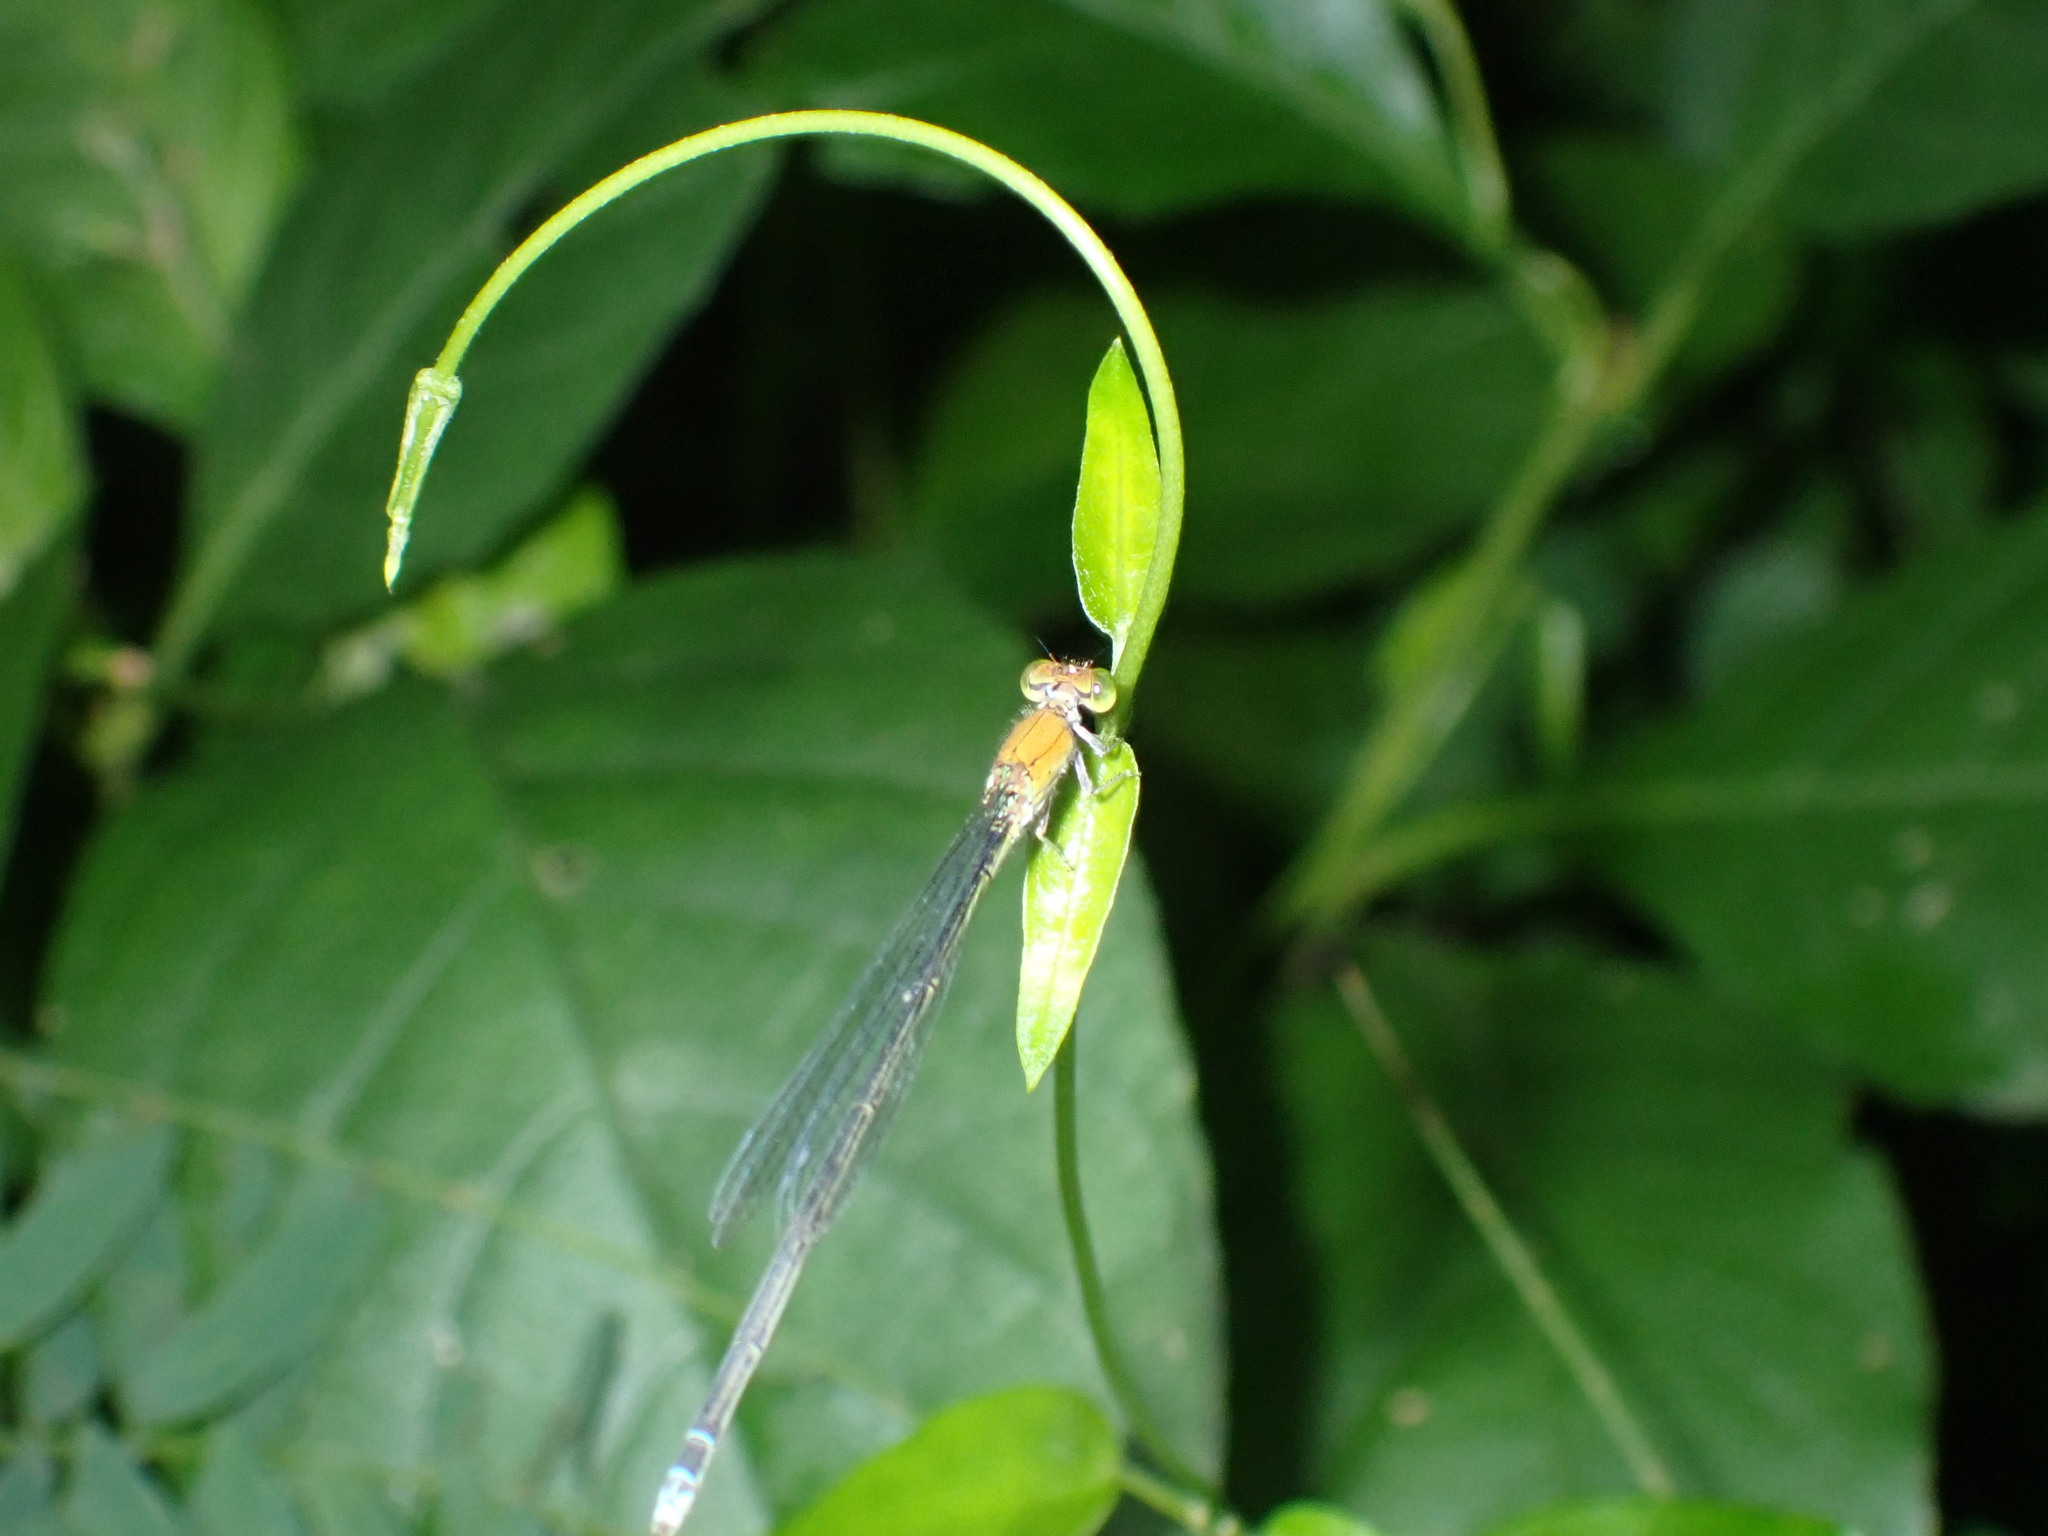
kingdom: Animalia
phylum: Arthropoda
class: Insecta
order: Odonata
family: Coenagrionidae
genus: Pseudagrion
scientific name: Pseudagrion rubriceps
